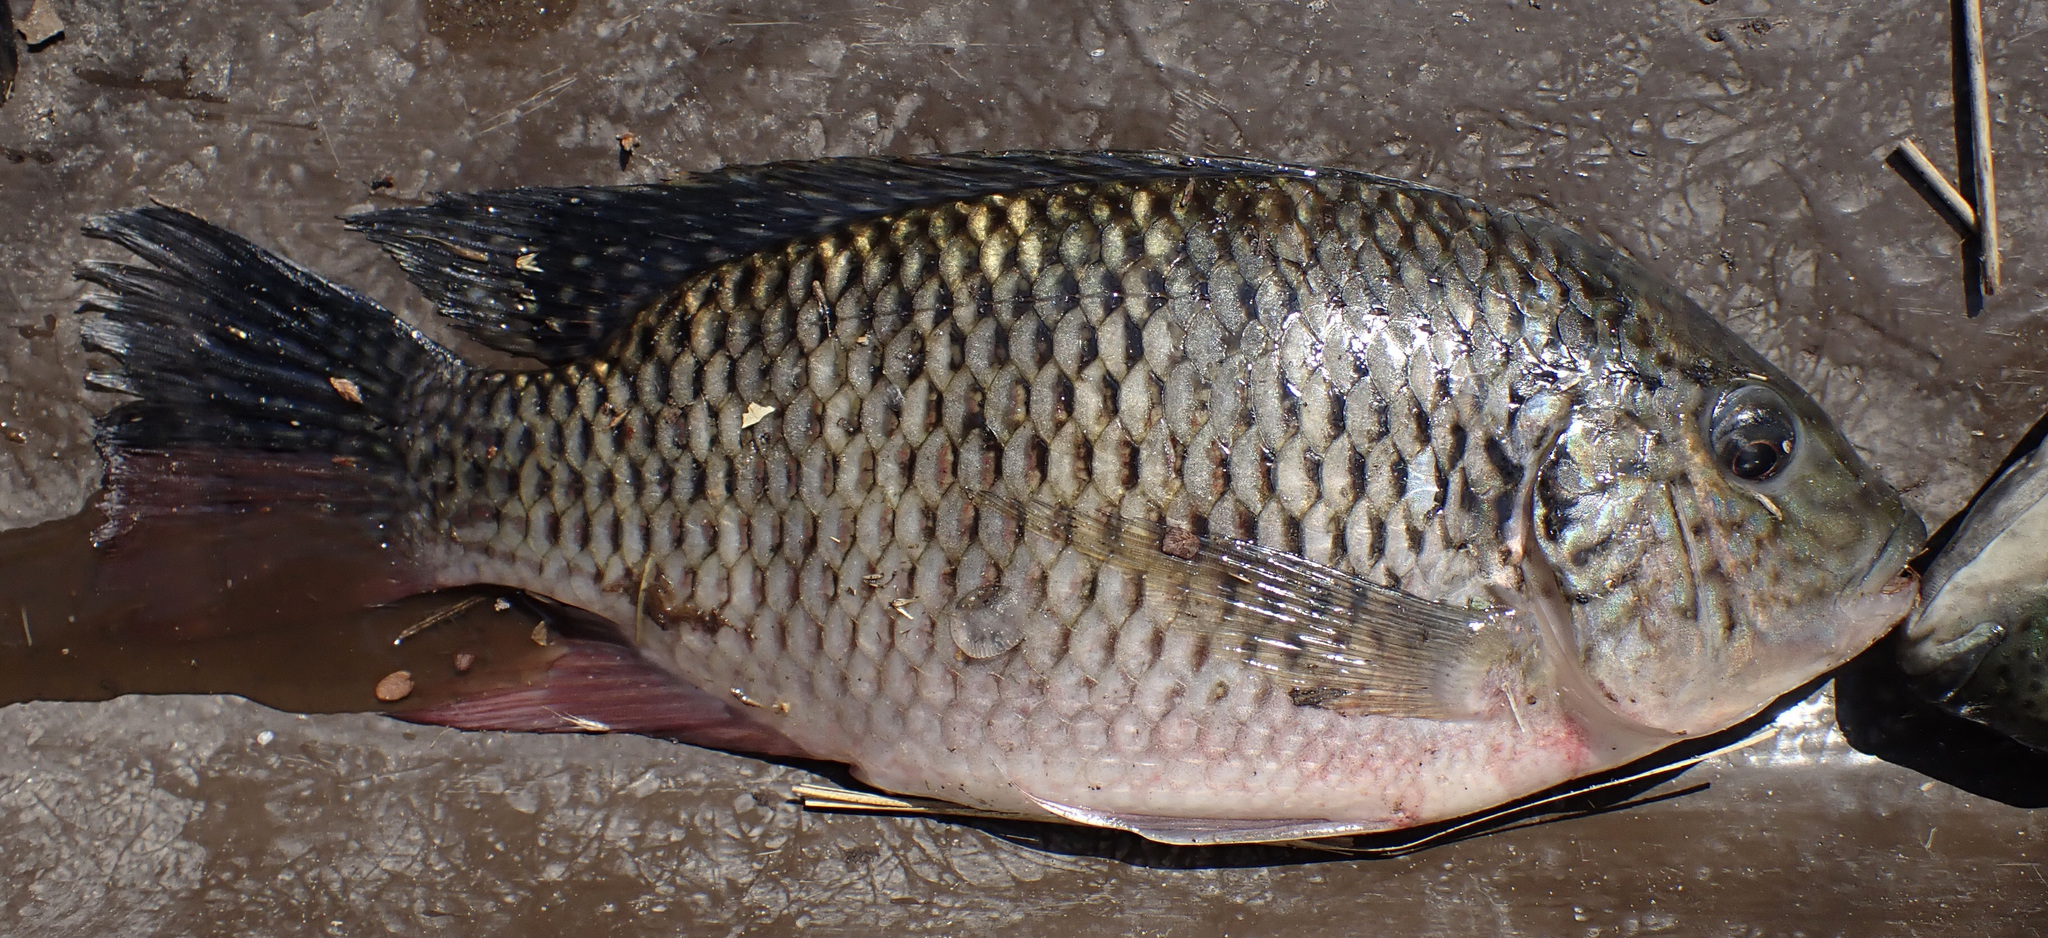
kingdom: Animalia
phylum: Chordata
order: Perciformes
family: Cichlidae
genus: Coptodon
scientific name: Coptodon rendalli
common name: Redbreast tilapia
